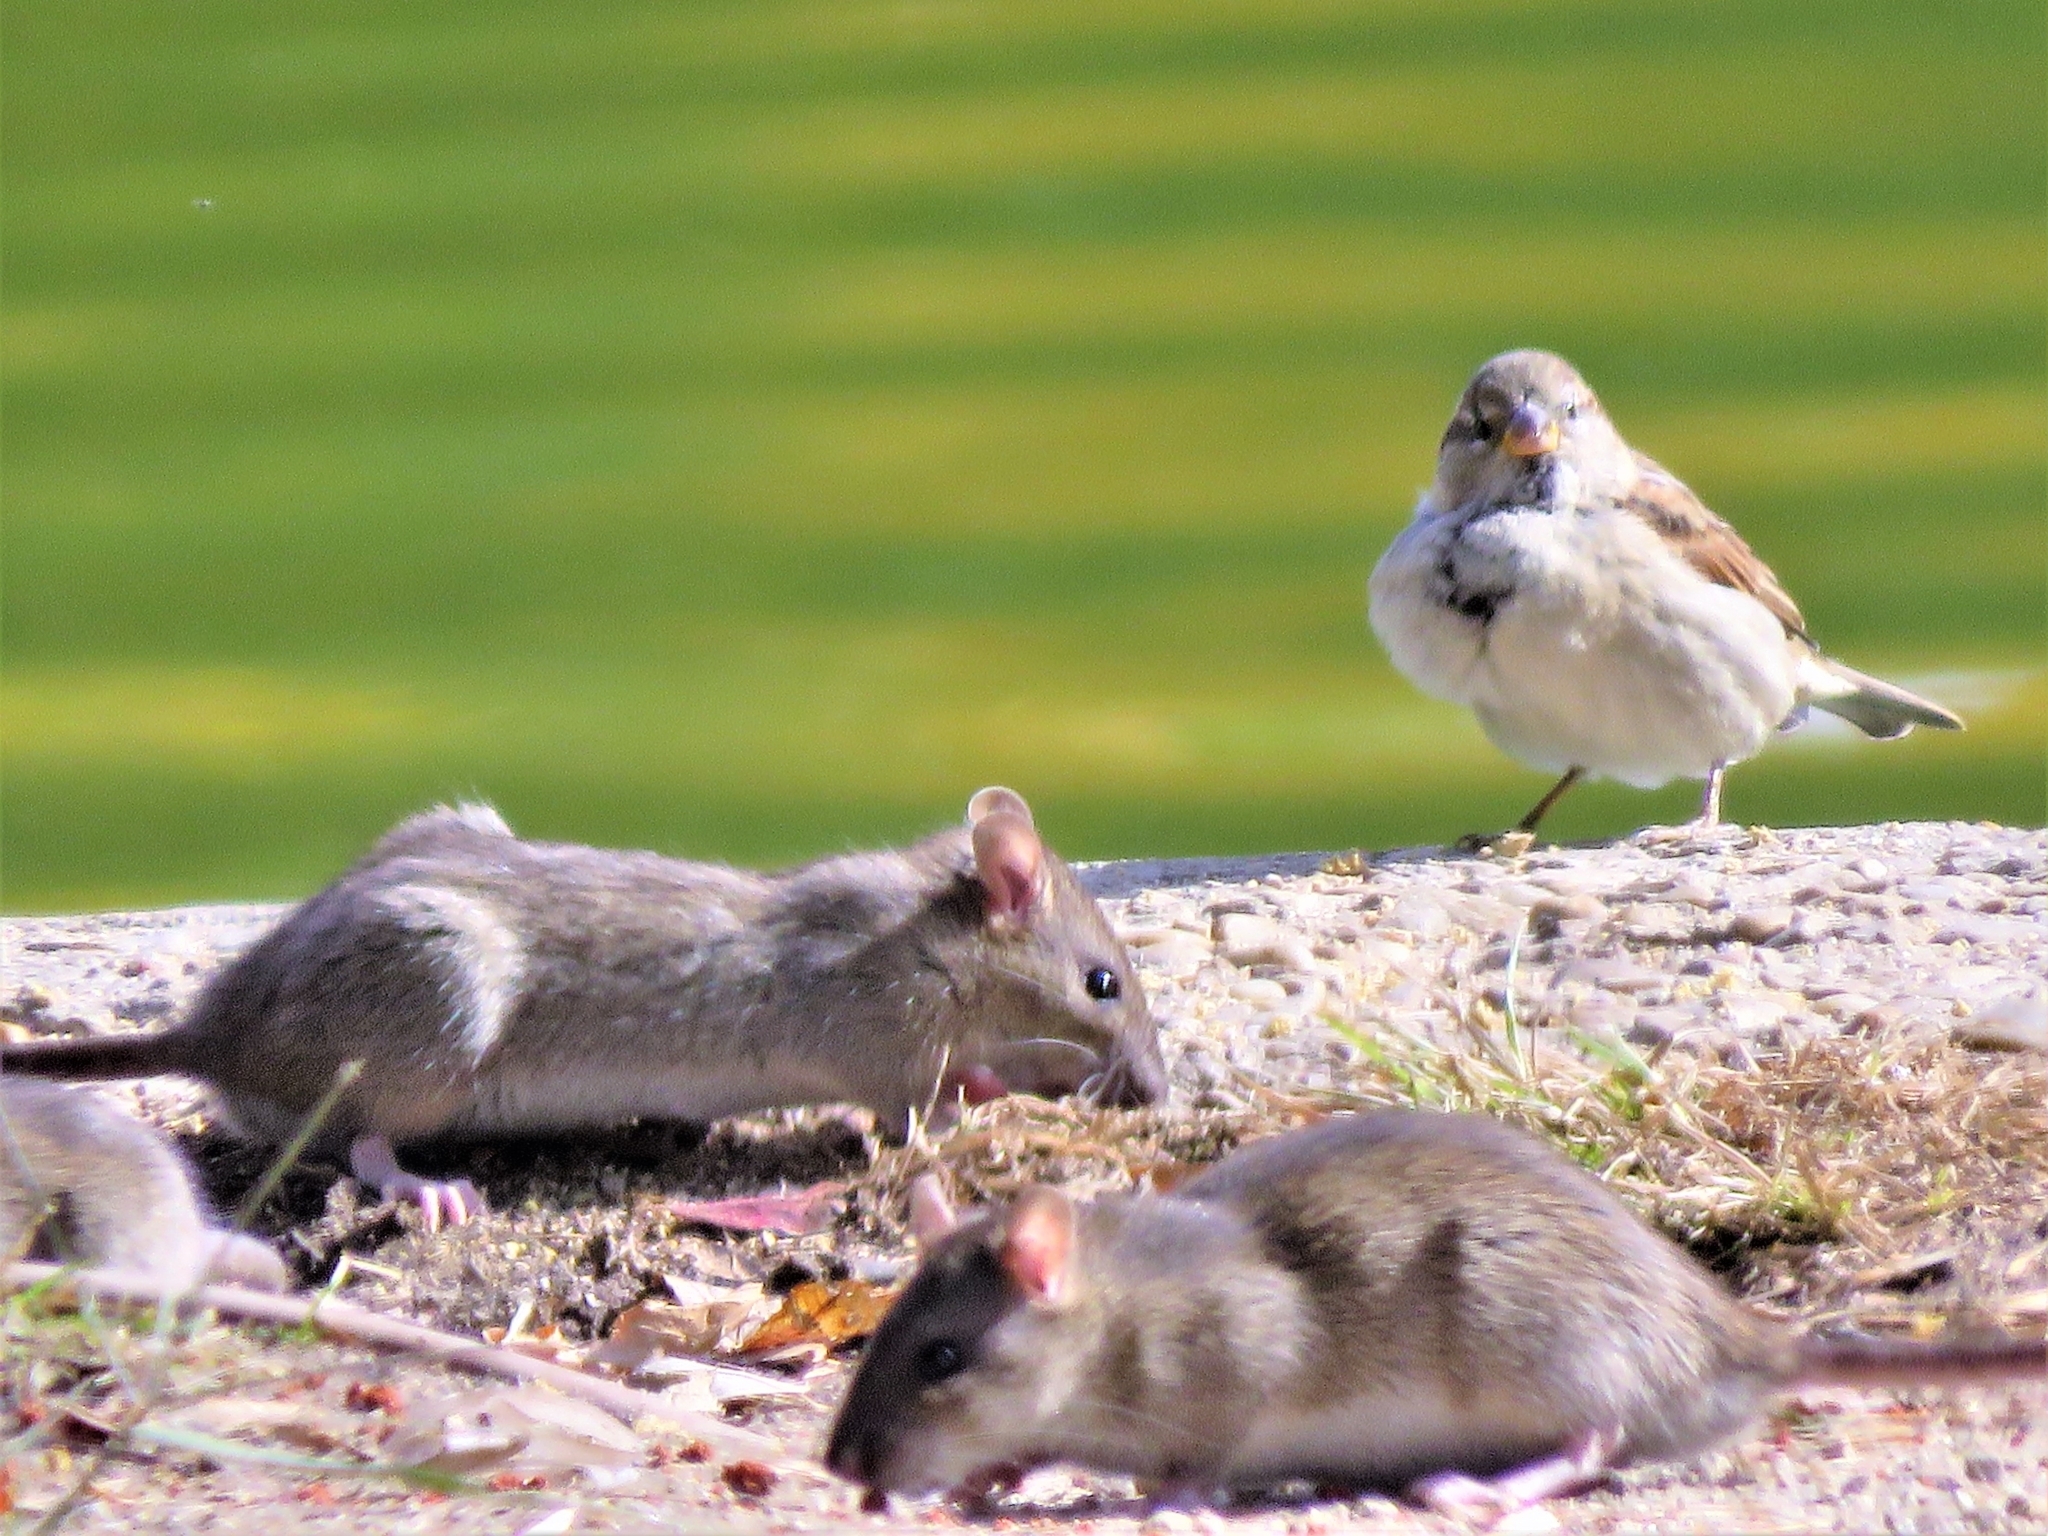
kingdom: Animalia
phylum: Chordata
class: Mammalia
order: Rodentia
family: Muridae
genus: Rattus
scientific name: Rattus rattus
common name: Black rat
